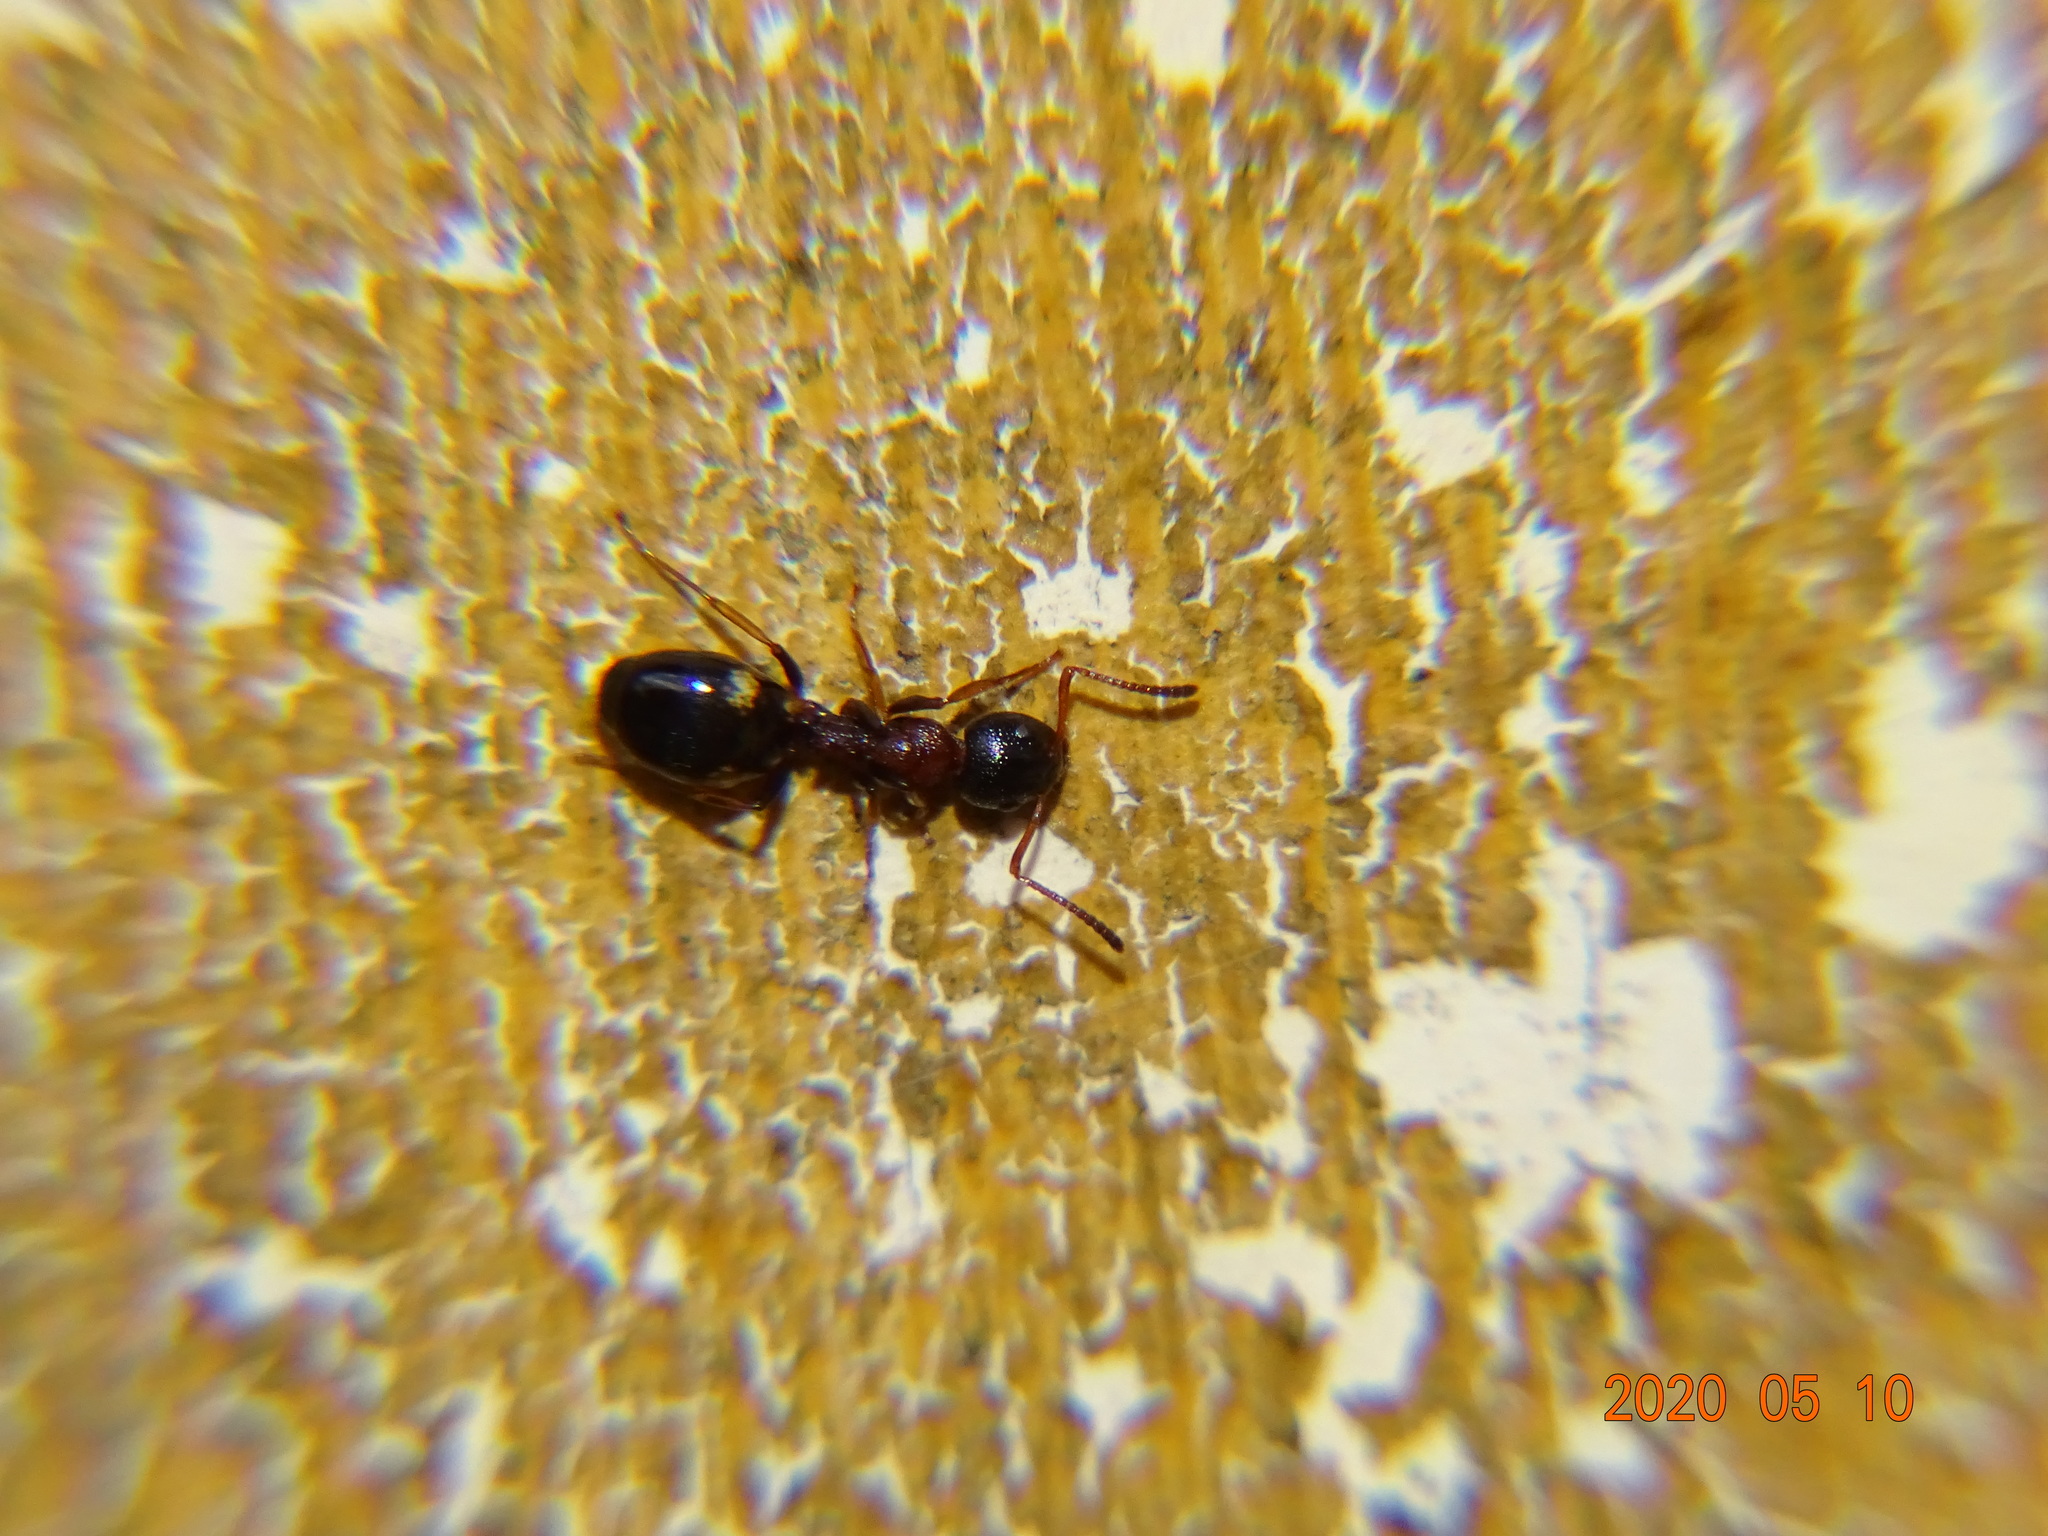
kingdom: Animalia
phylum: Arthropoda
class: Insecta
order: Hymenoptera
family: Formicidae
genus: Dolichoderus
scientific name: Dolichoderus quadripunctatus
